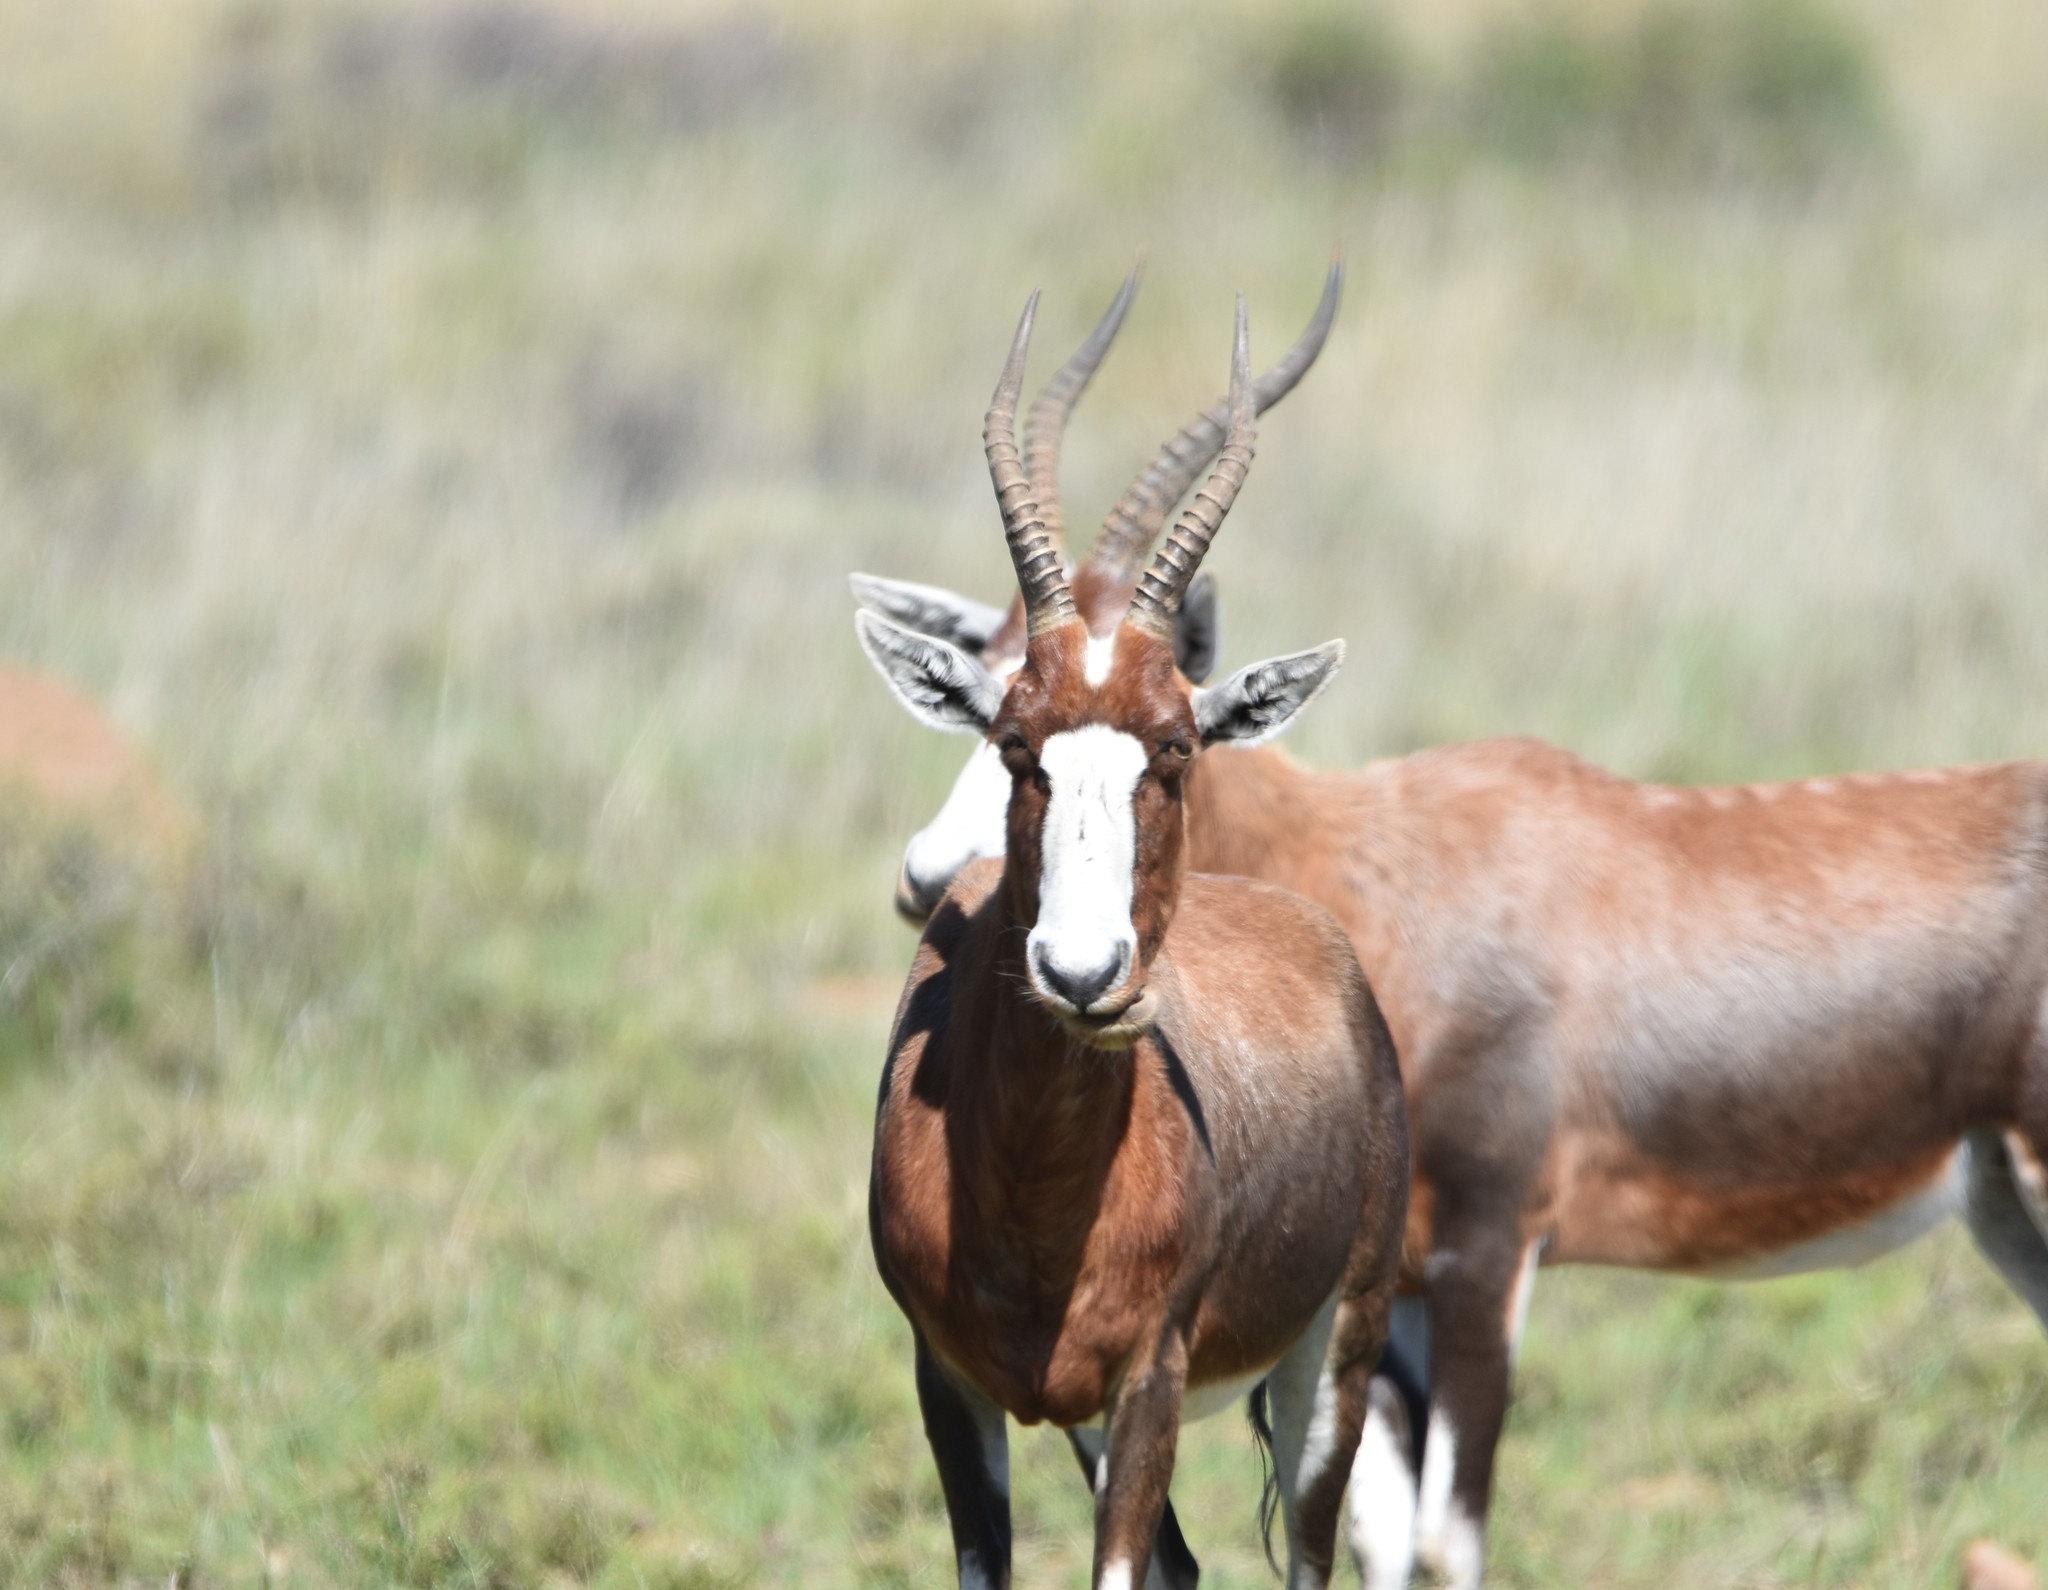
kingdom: Animalia
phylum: Chordata
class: Mammalia
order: Artiodactyla
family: Bovidae
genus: Damaliscus
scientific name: Damaliscus pygargus
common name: Bontebok
